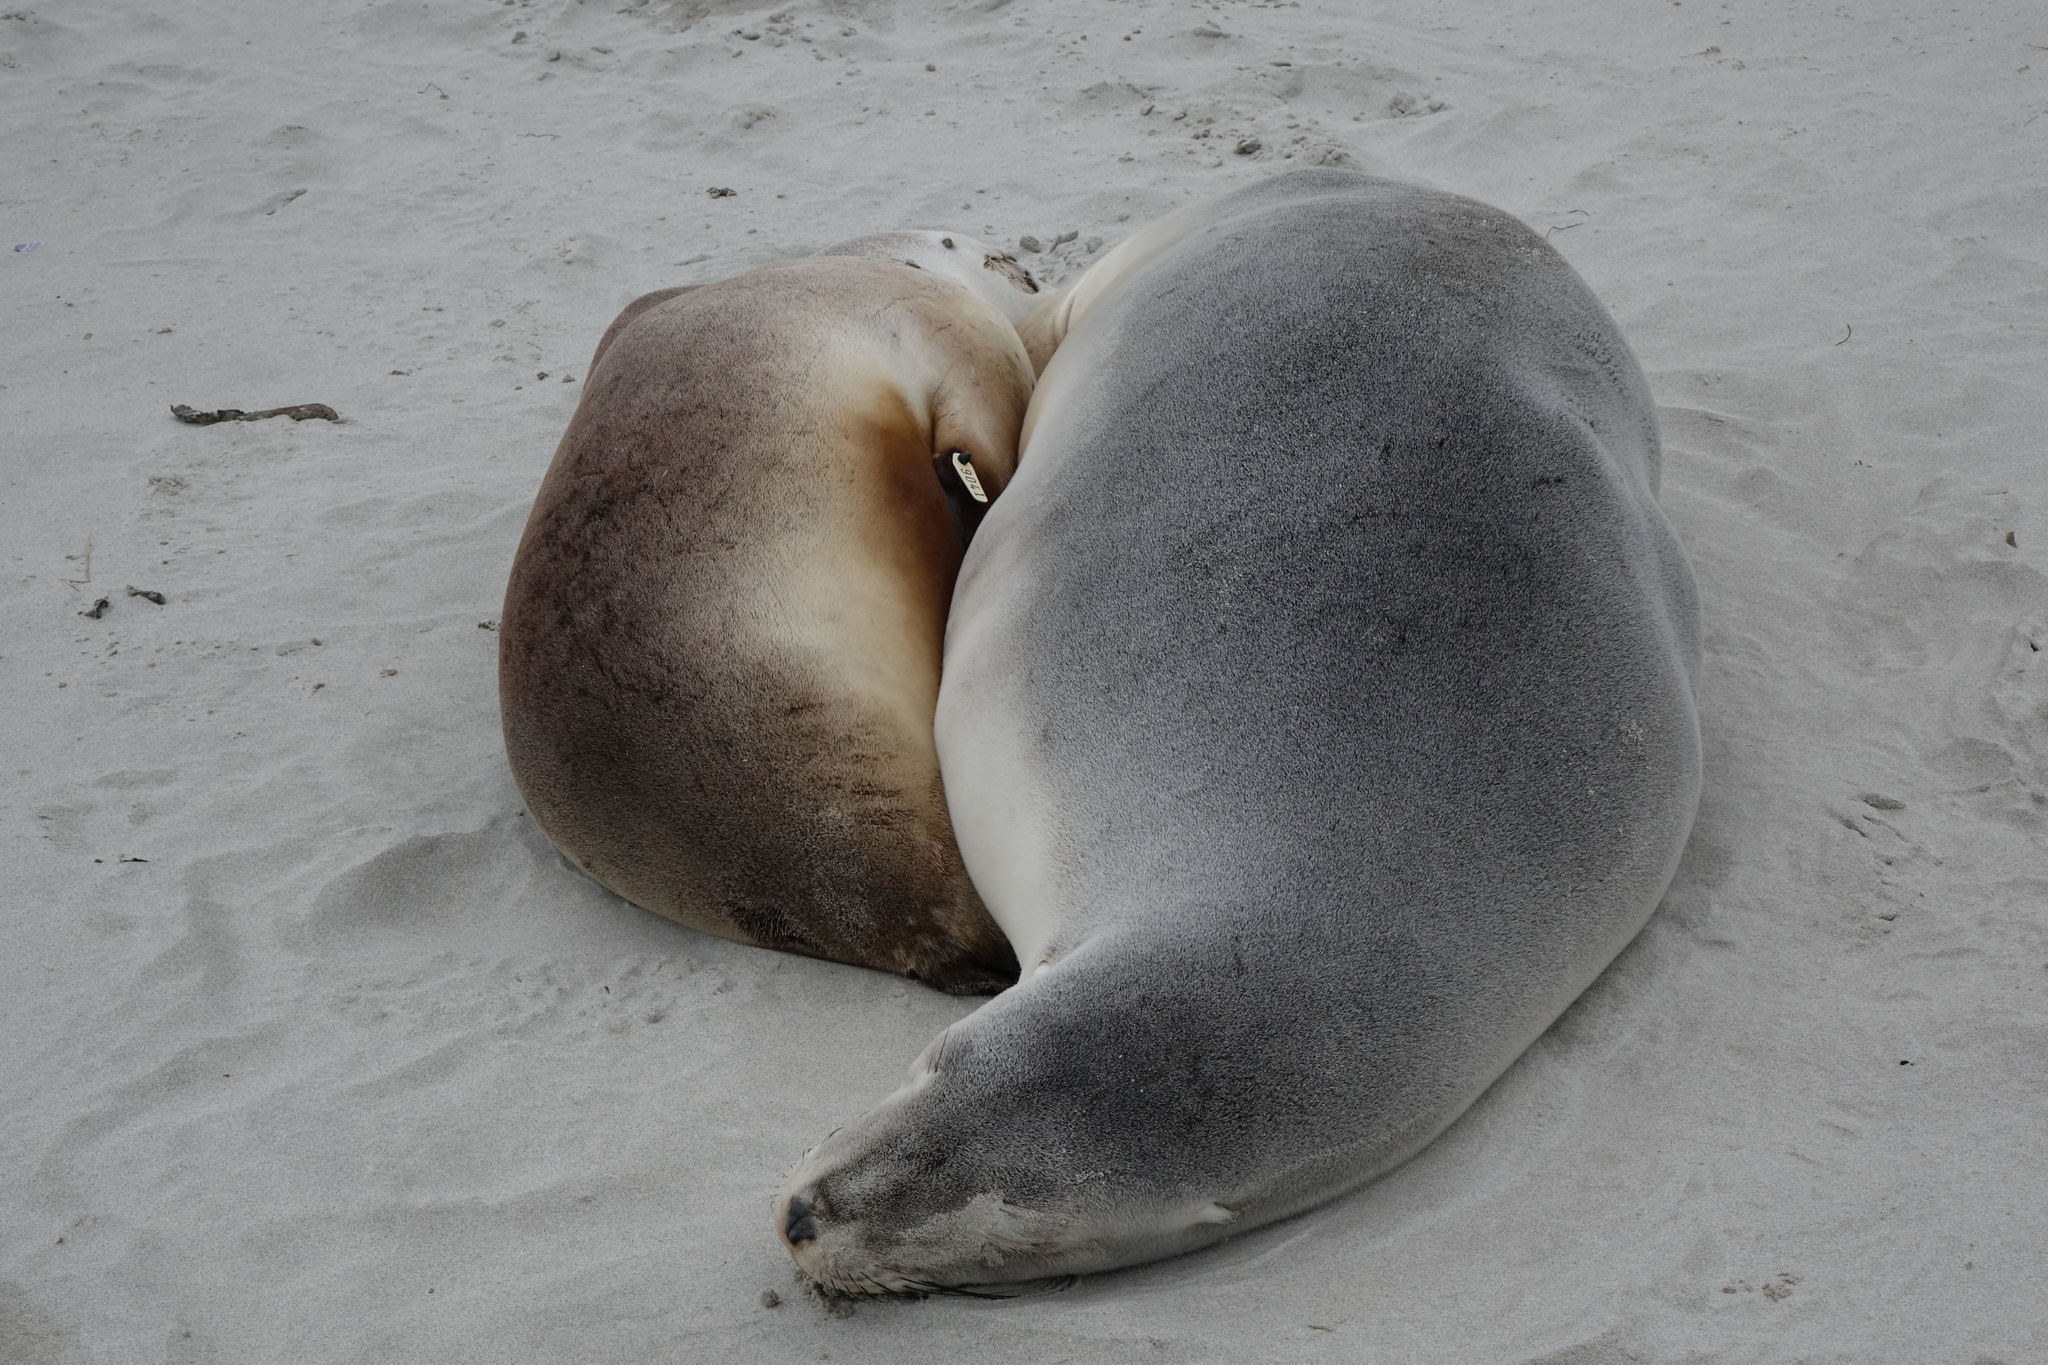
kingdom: Animalia
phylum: Chordata
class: Mammalia
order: Carnivora
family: Otariidae
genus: Phocarctos
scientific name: Phocarctos hookeri
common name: New zealand sea lion
